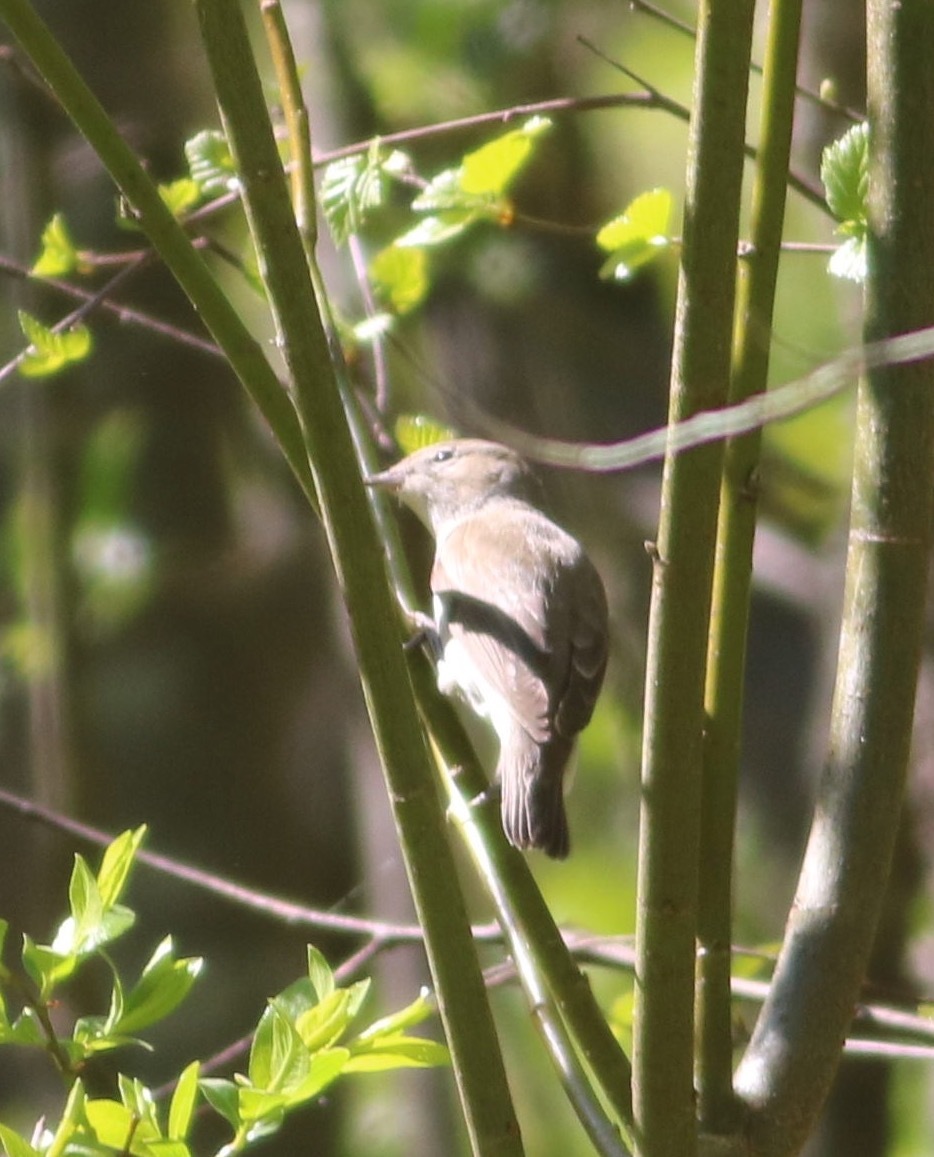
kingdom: Animalia
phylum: Chordata
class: Aves
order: Passeriformes
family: Sylviidae
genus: Sylvia
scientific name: Sylvia borin
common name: Garden warbler
